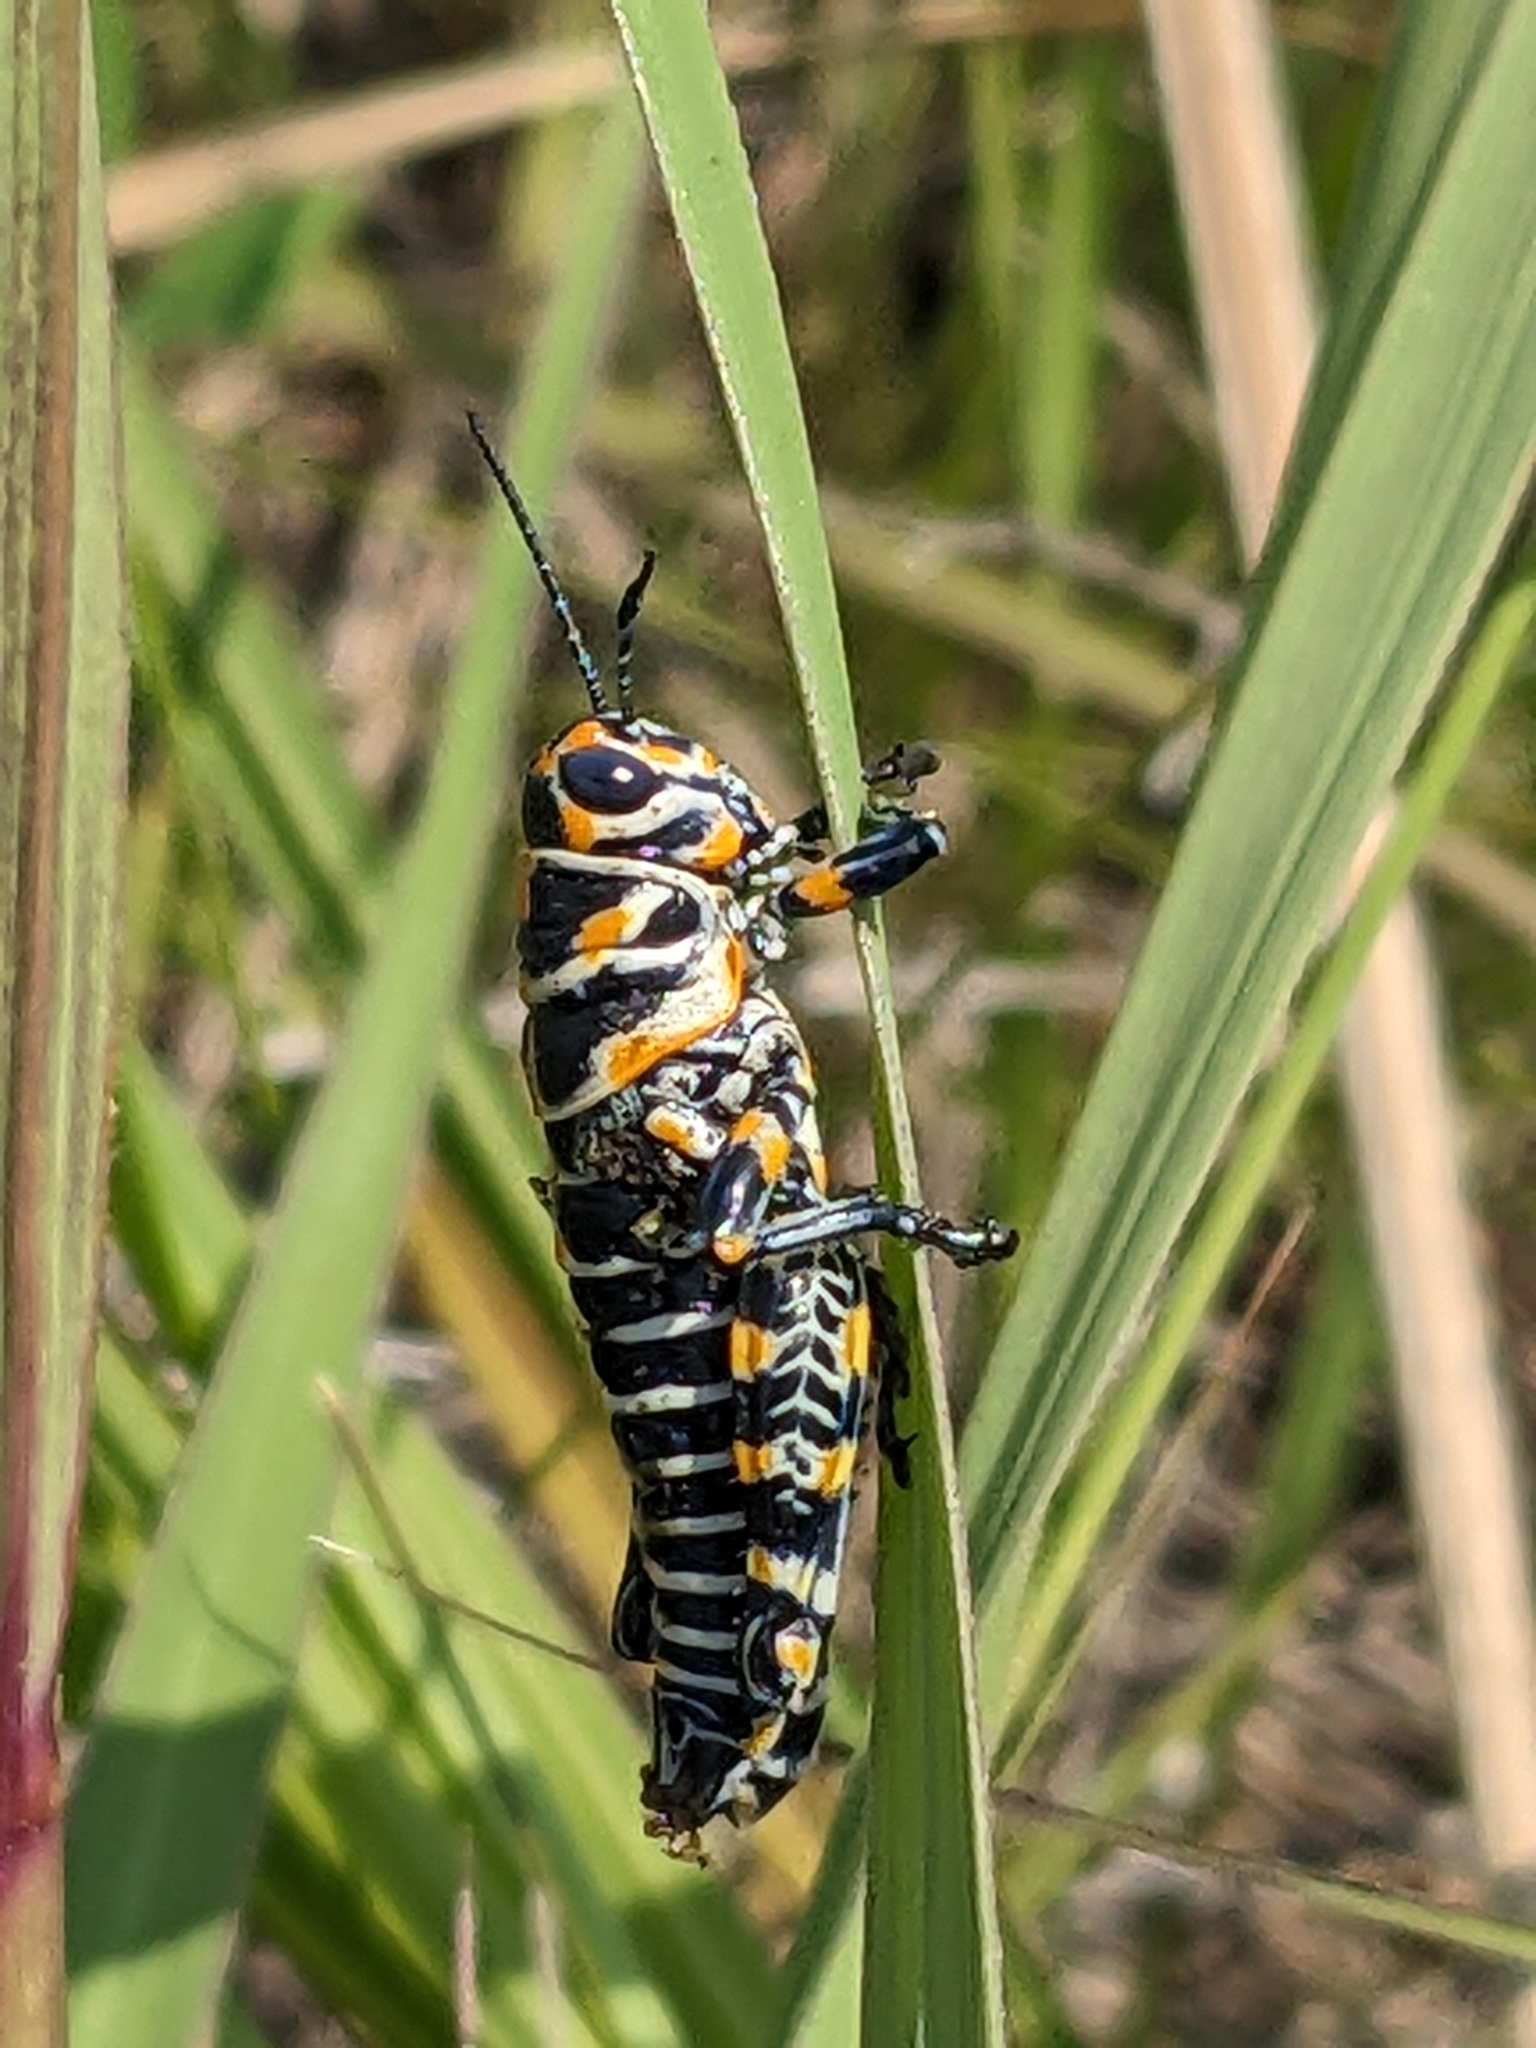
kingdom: Animalia
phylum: Arthropoda
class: Insecta
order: Orthoptera
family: Acrididae
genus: Dactylotum
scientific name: Dactylotum bicolor
